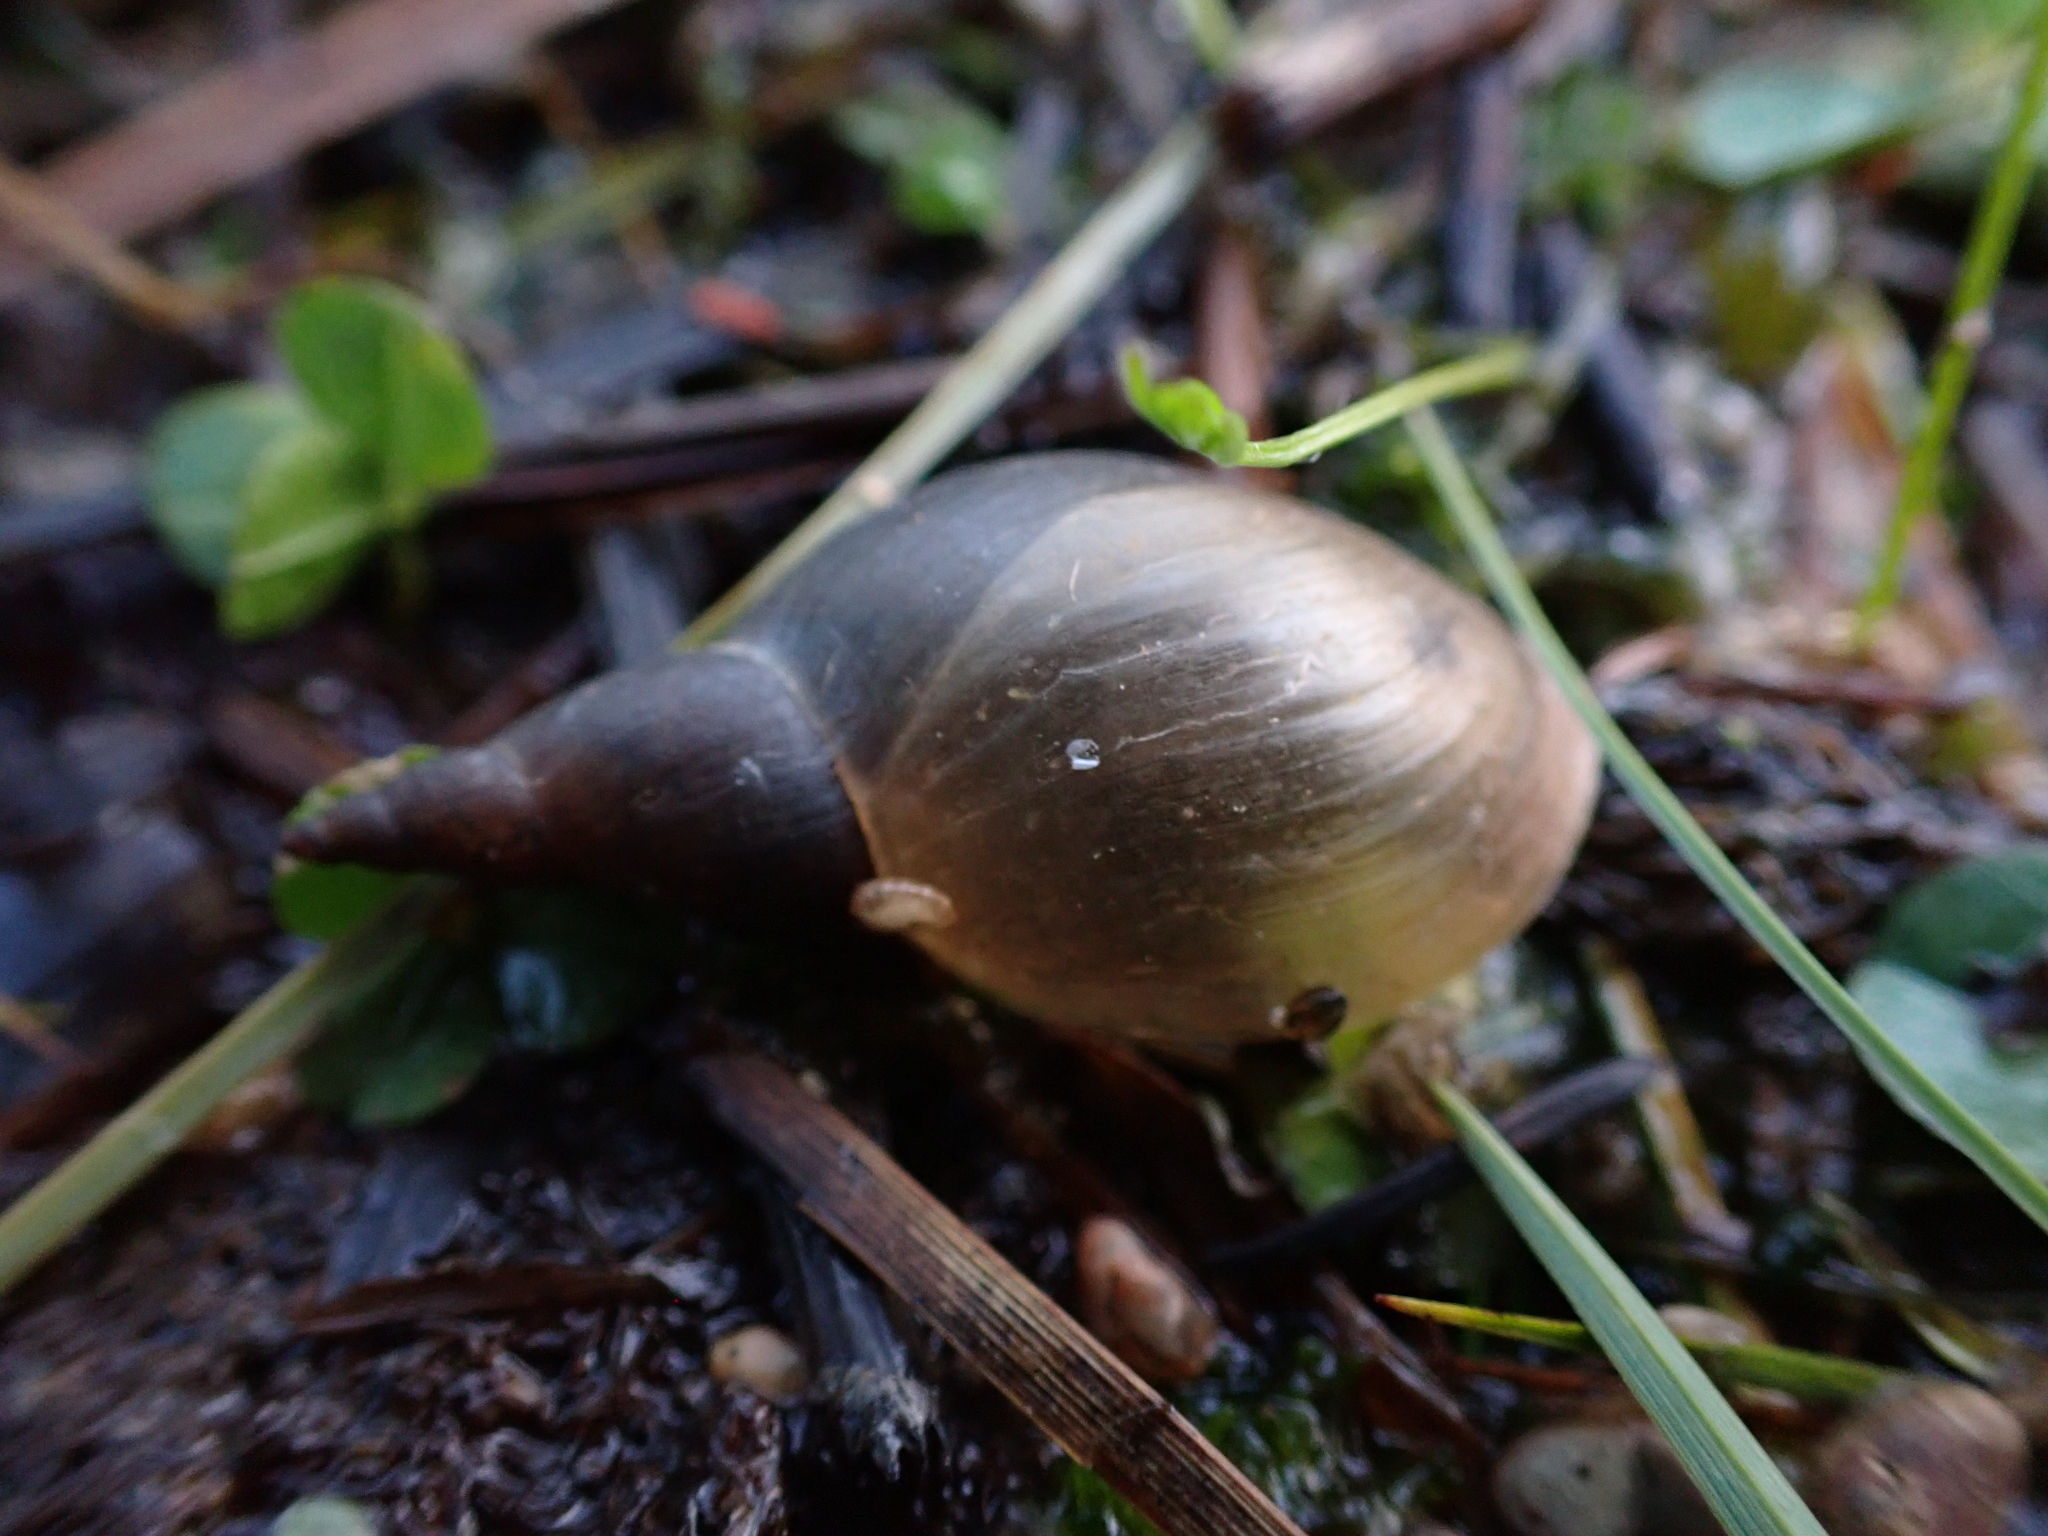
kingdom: Animalia
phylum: Mollusca
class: Gastropoda
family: Lymnaeidae
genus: Lymnaea
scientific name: Lymnaea stagnalis
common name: Great pond snail
